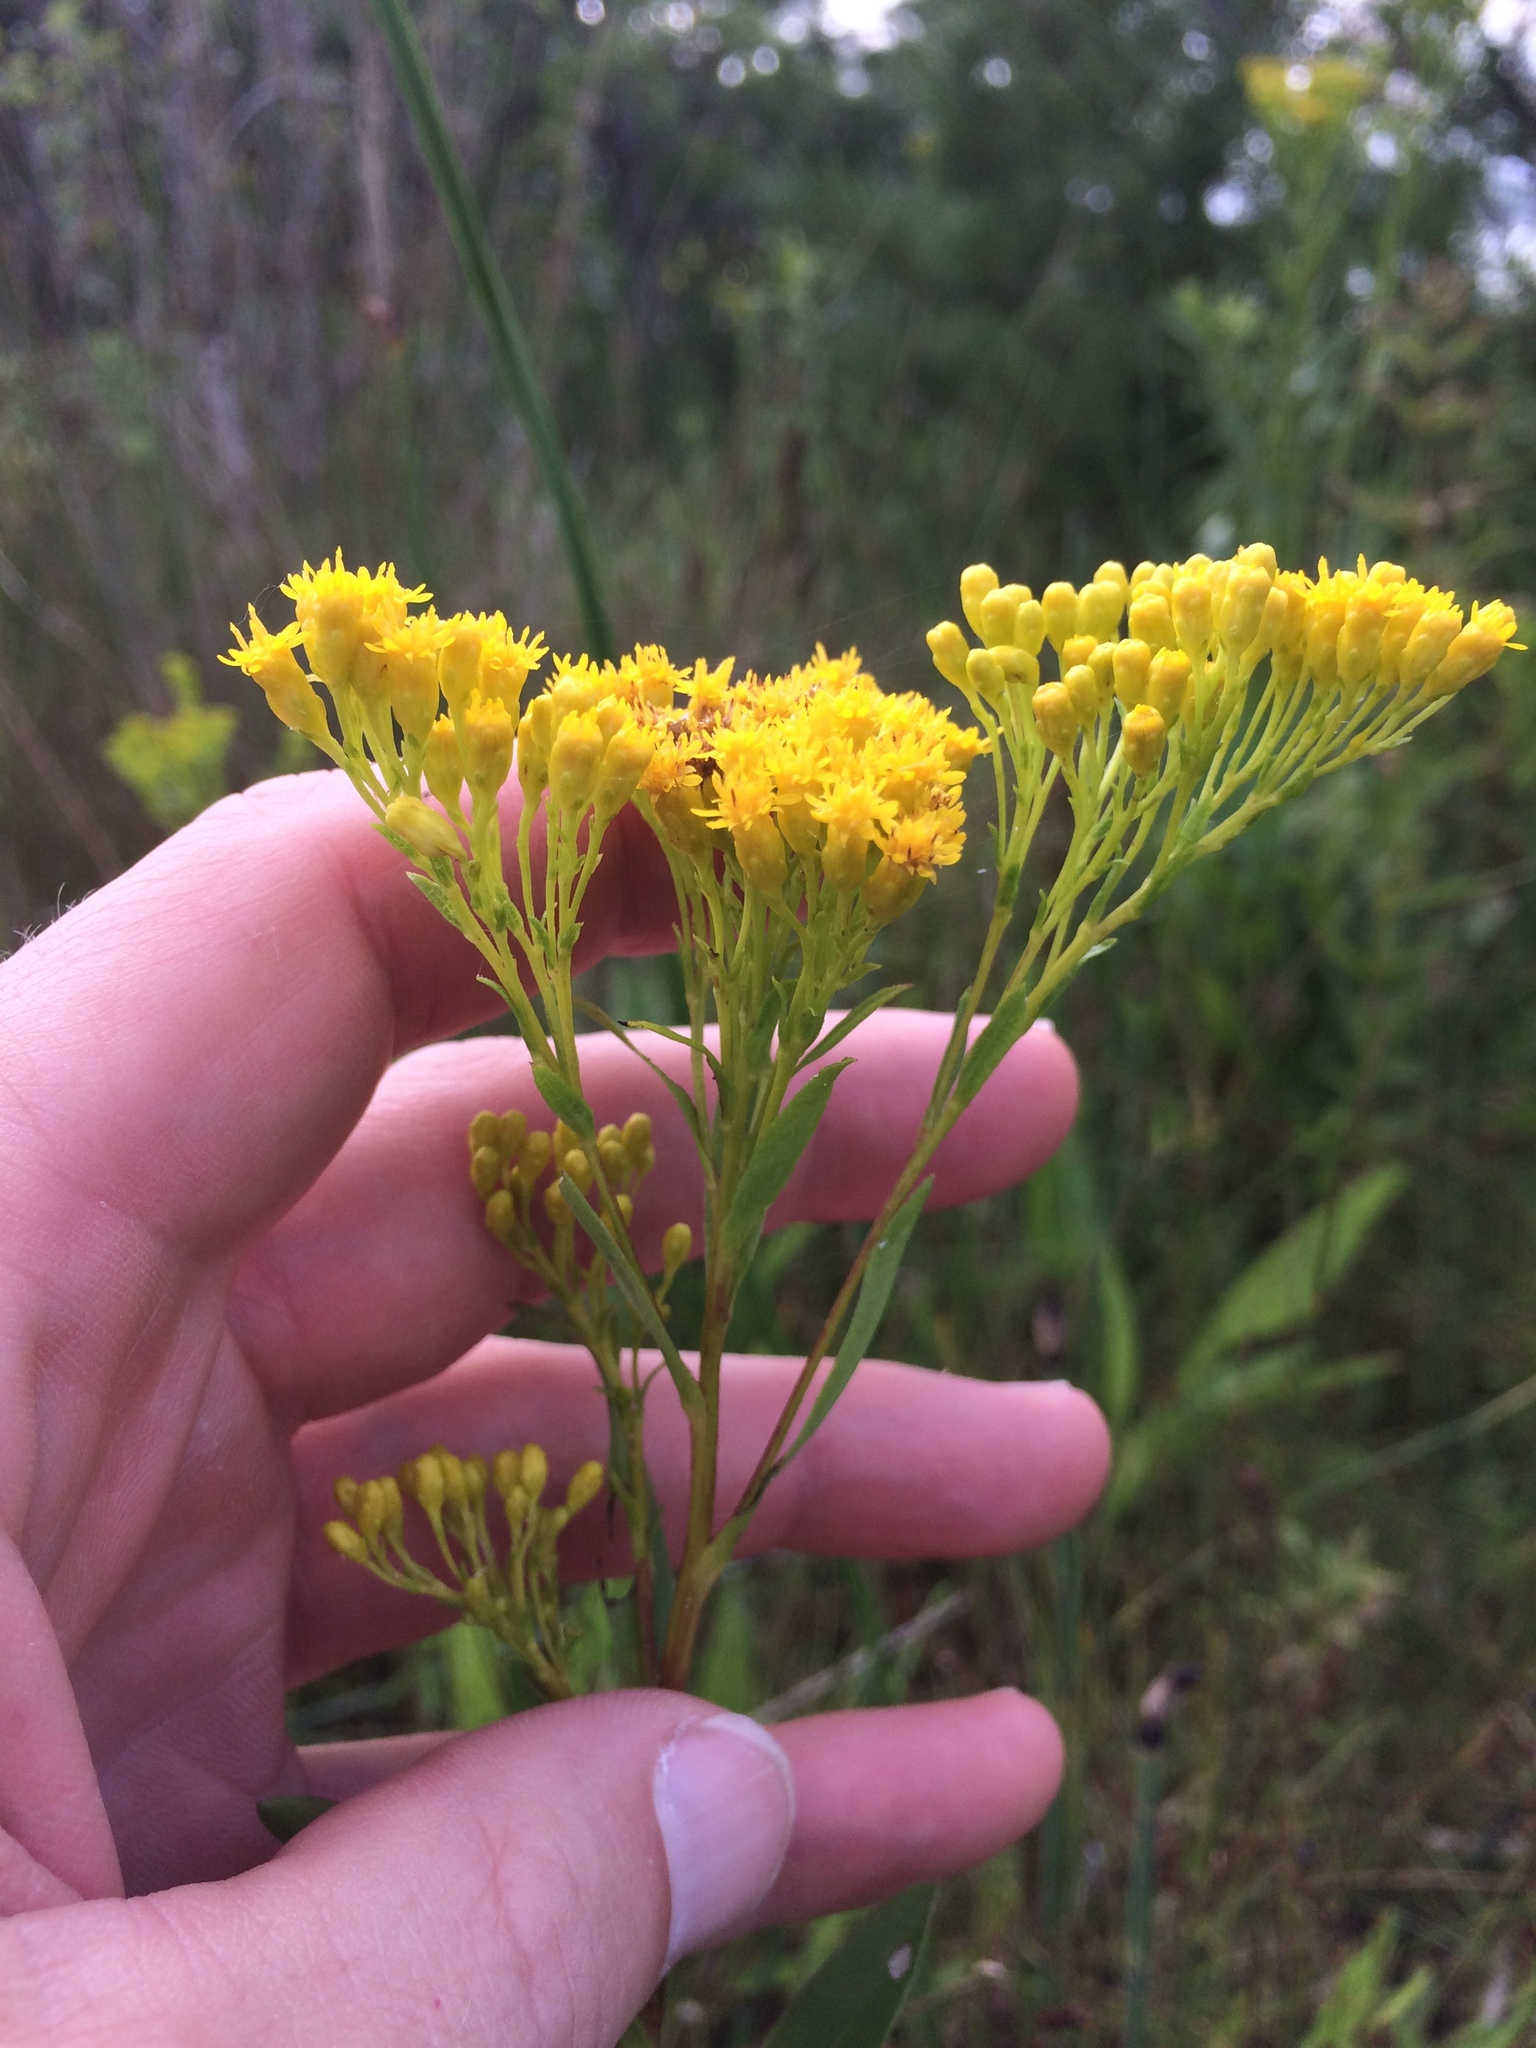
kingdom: Plantae
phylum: Tracheophyta
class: Magnoliopsida
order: Asterales
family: Asteraceae
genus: Solidago
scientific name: Solidago ohioensis
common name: Ohio goldenrod
